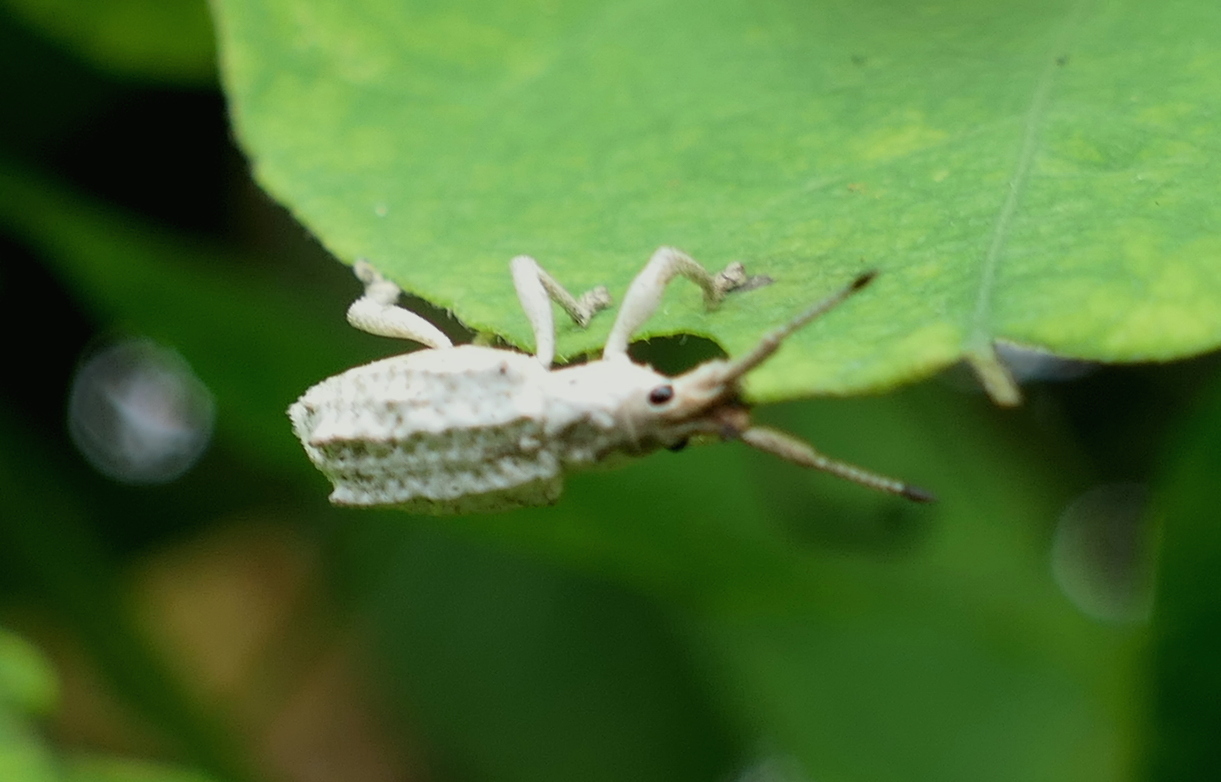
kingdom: Animalia
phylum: Arthropoda
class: Insecta
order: Coleoptera
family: Curculionidae
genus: Compsus
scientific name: Compsus niveus
